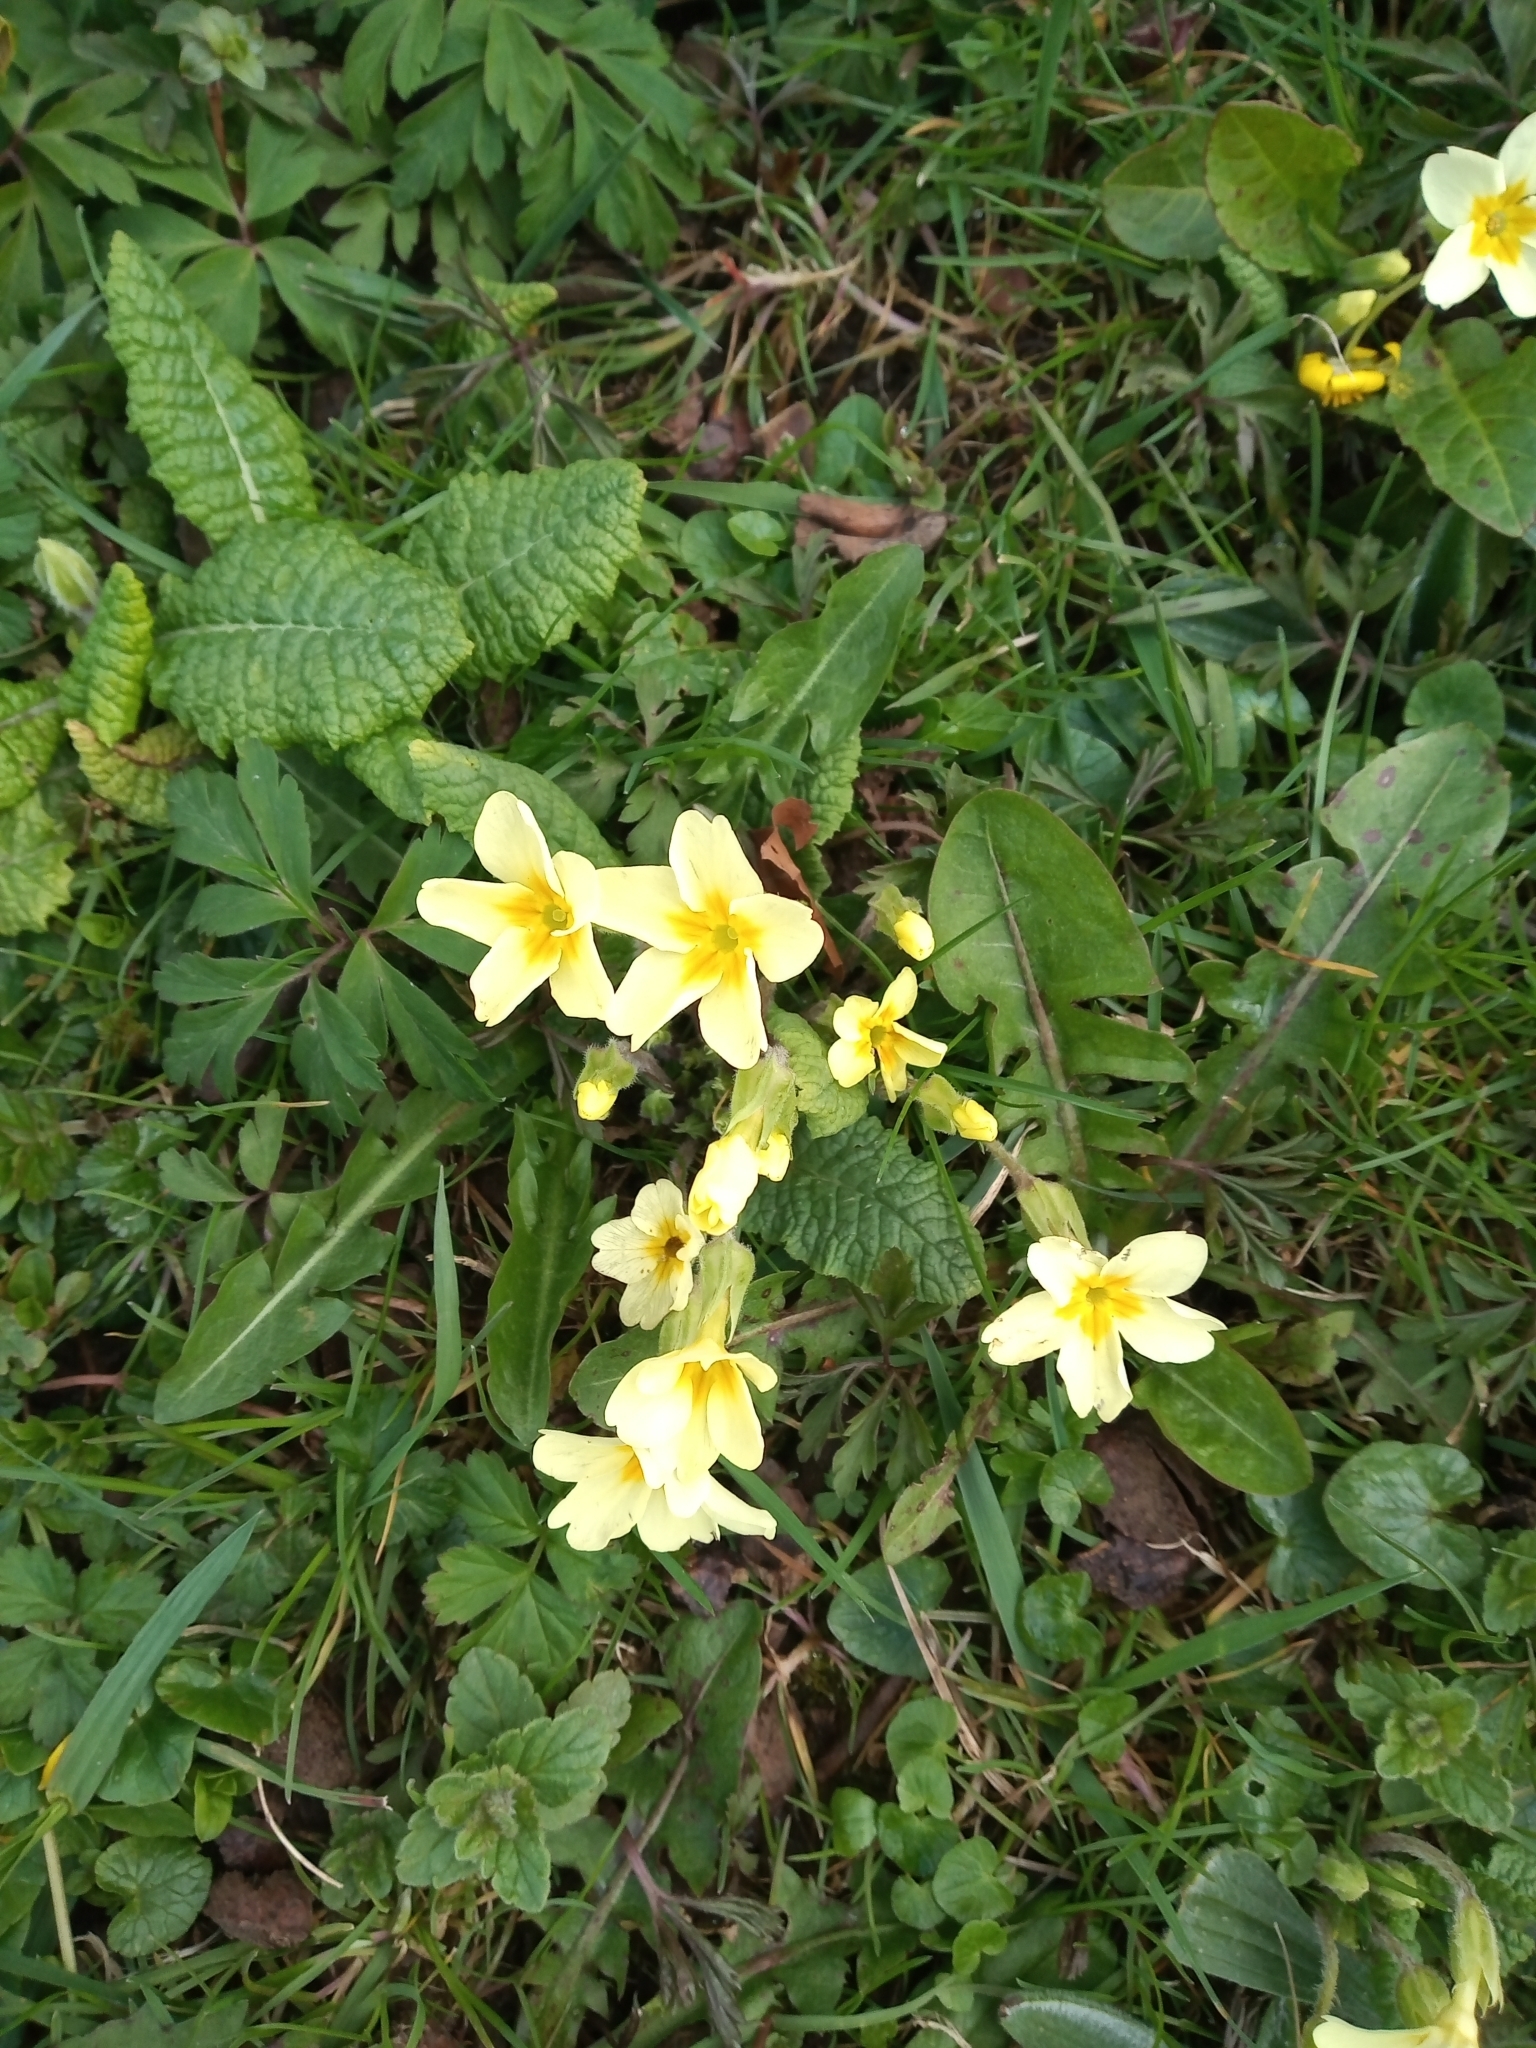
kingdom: Plantae
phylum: Tracheophyta
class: Magnoliopsida
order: Ericales
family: Primulaceae
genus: Primula
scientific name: Primula vulgaris
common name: Primrose
